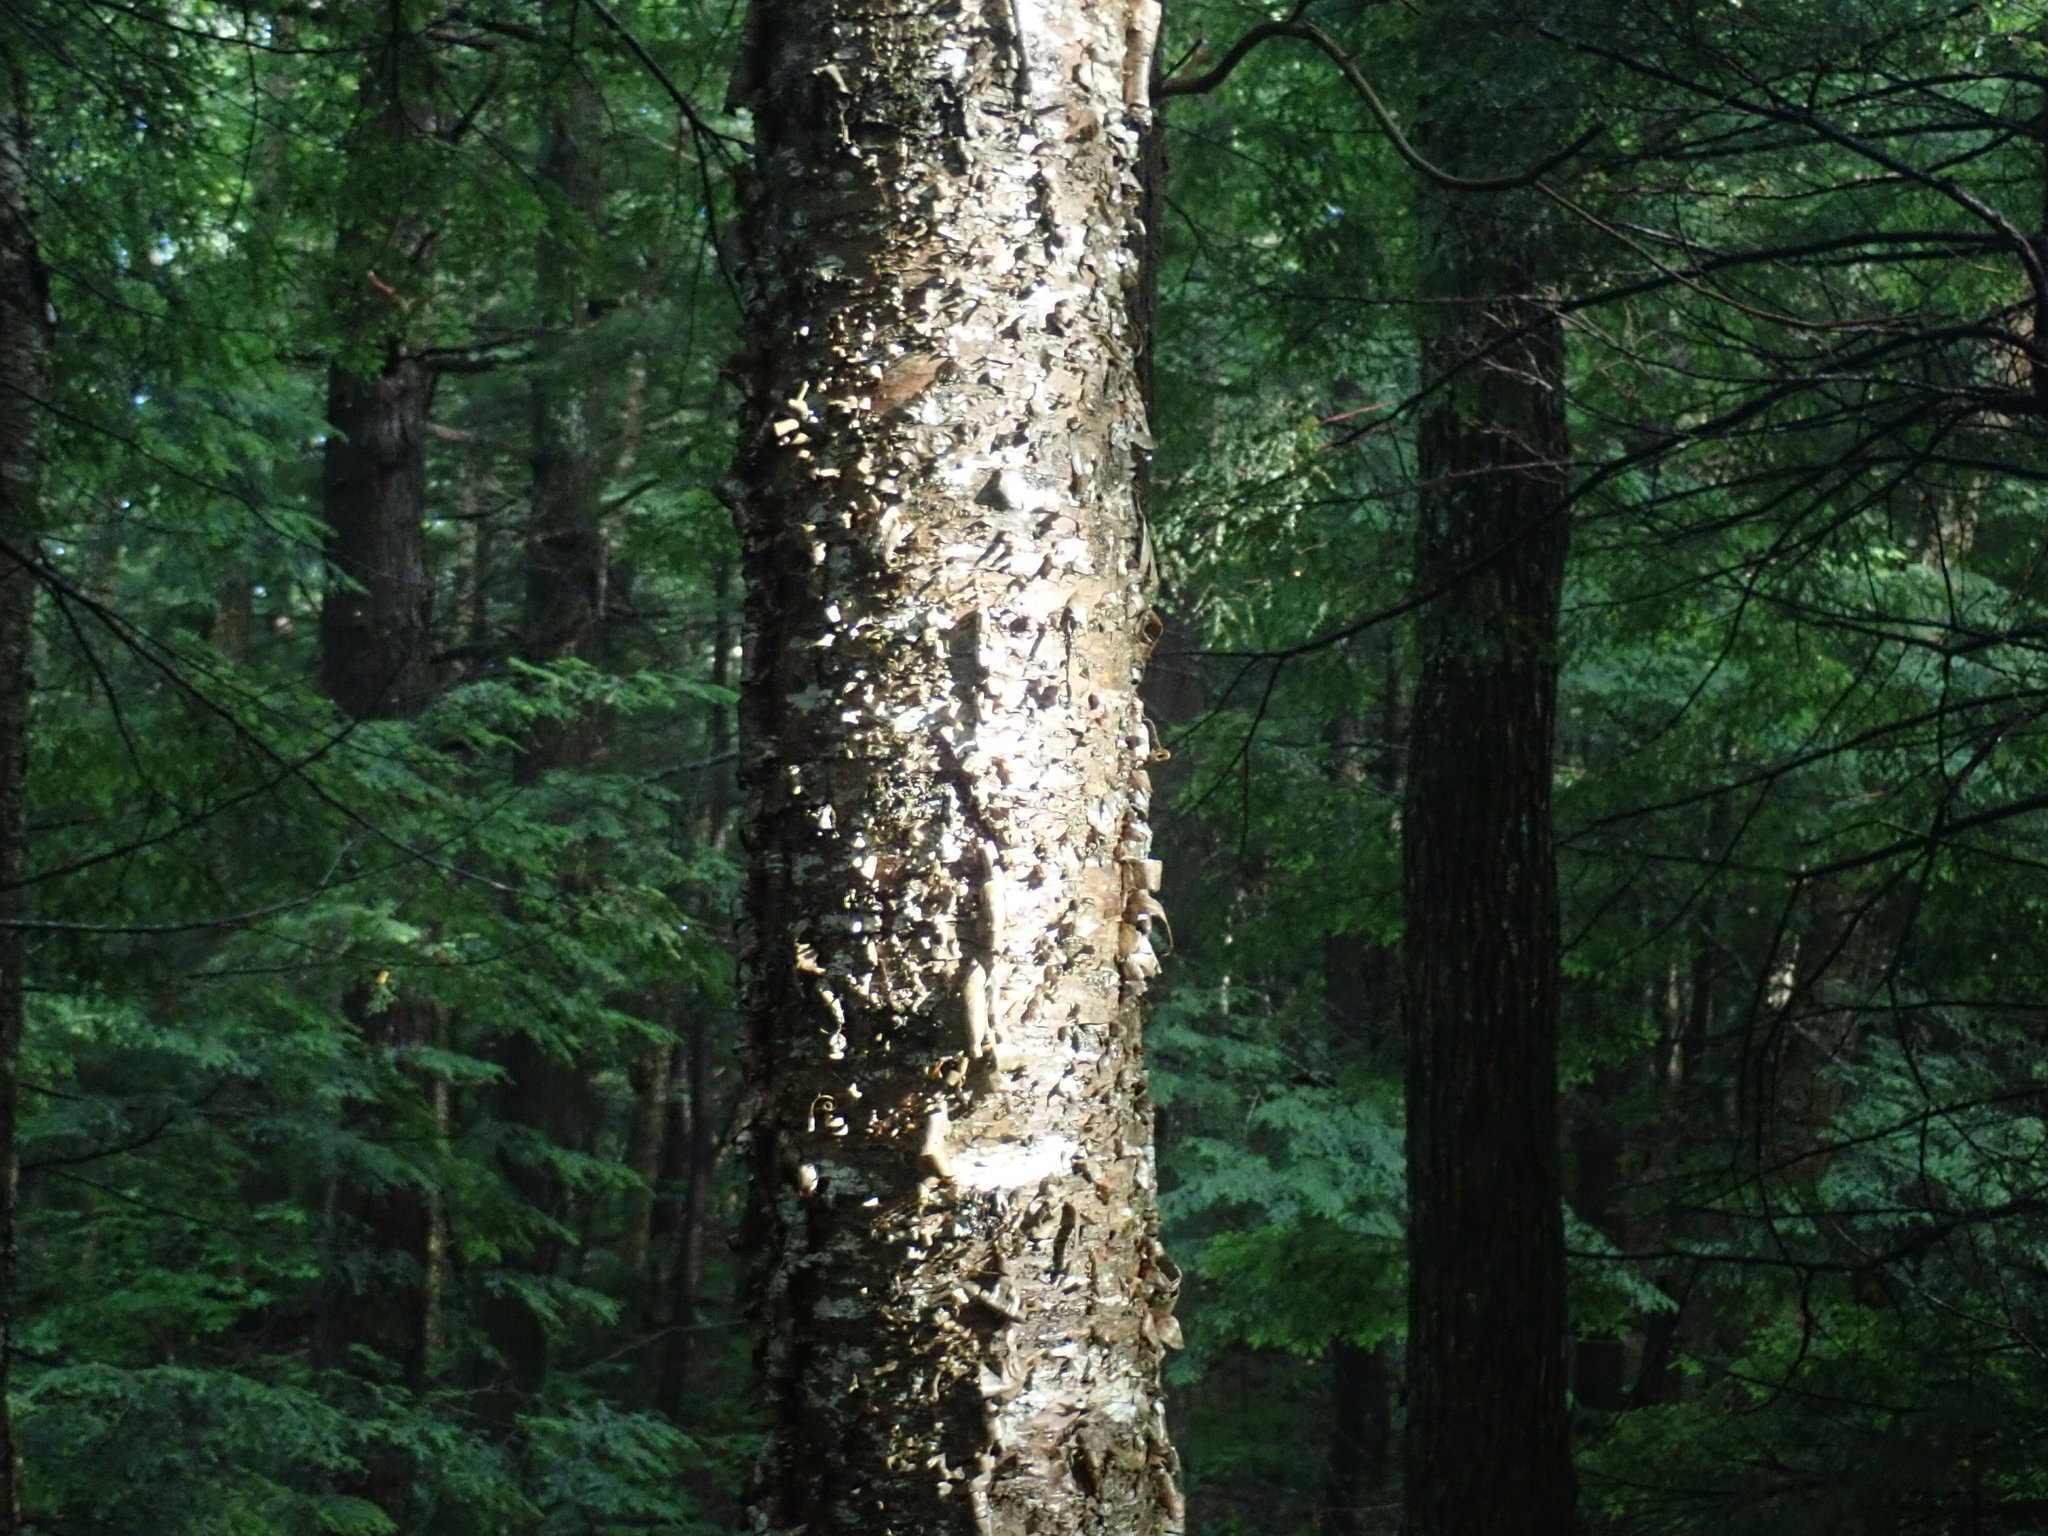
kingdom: Plantae
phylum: Tracheophyta
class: Magnoliopsida
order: Fagales
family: Betulaceae
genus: Betula
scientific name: Betula alleghaniensis
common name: Yellow birch
